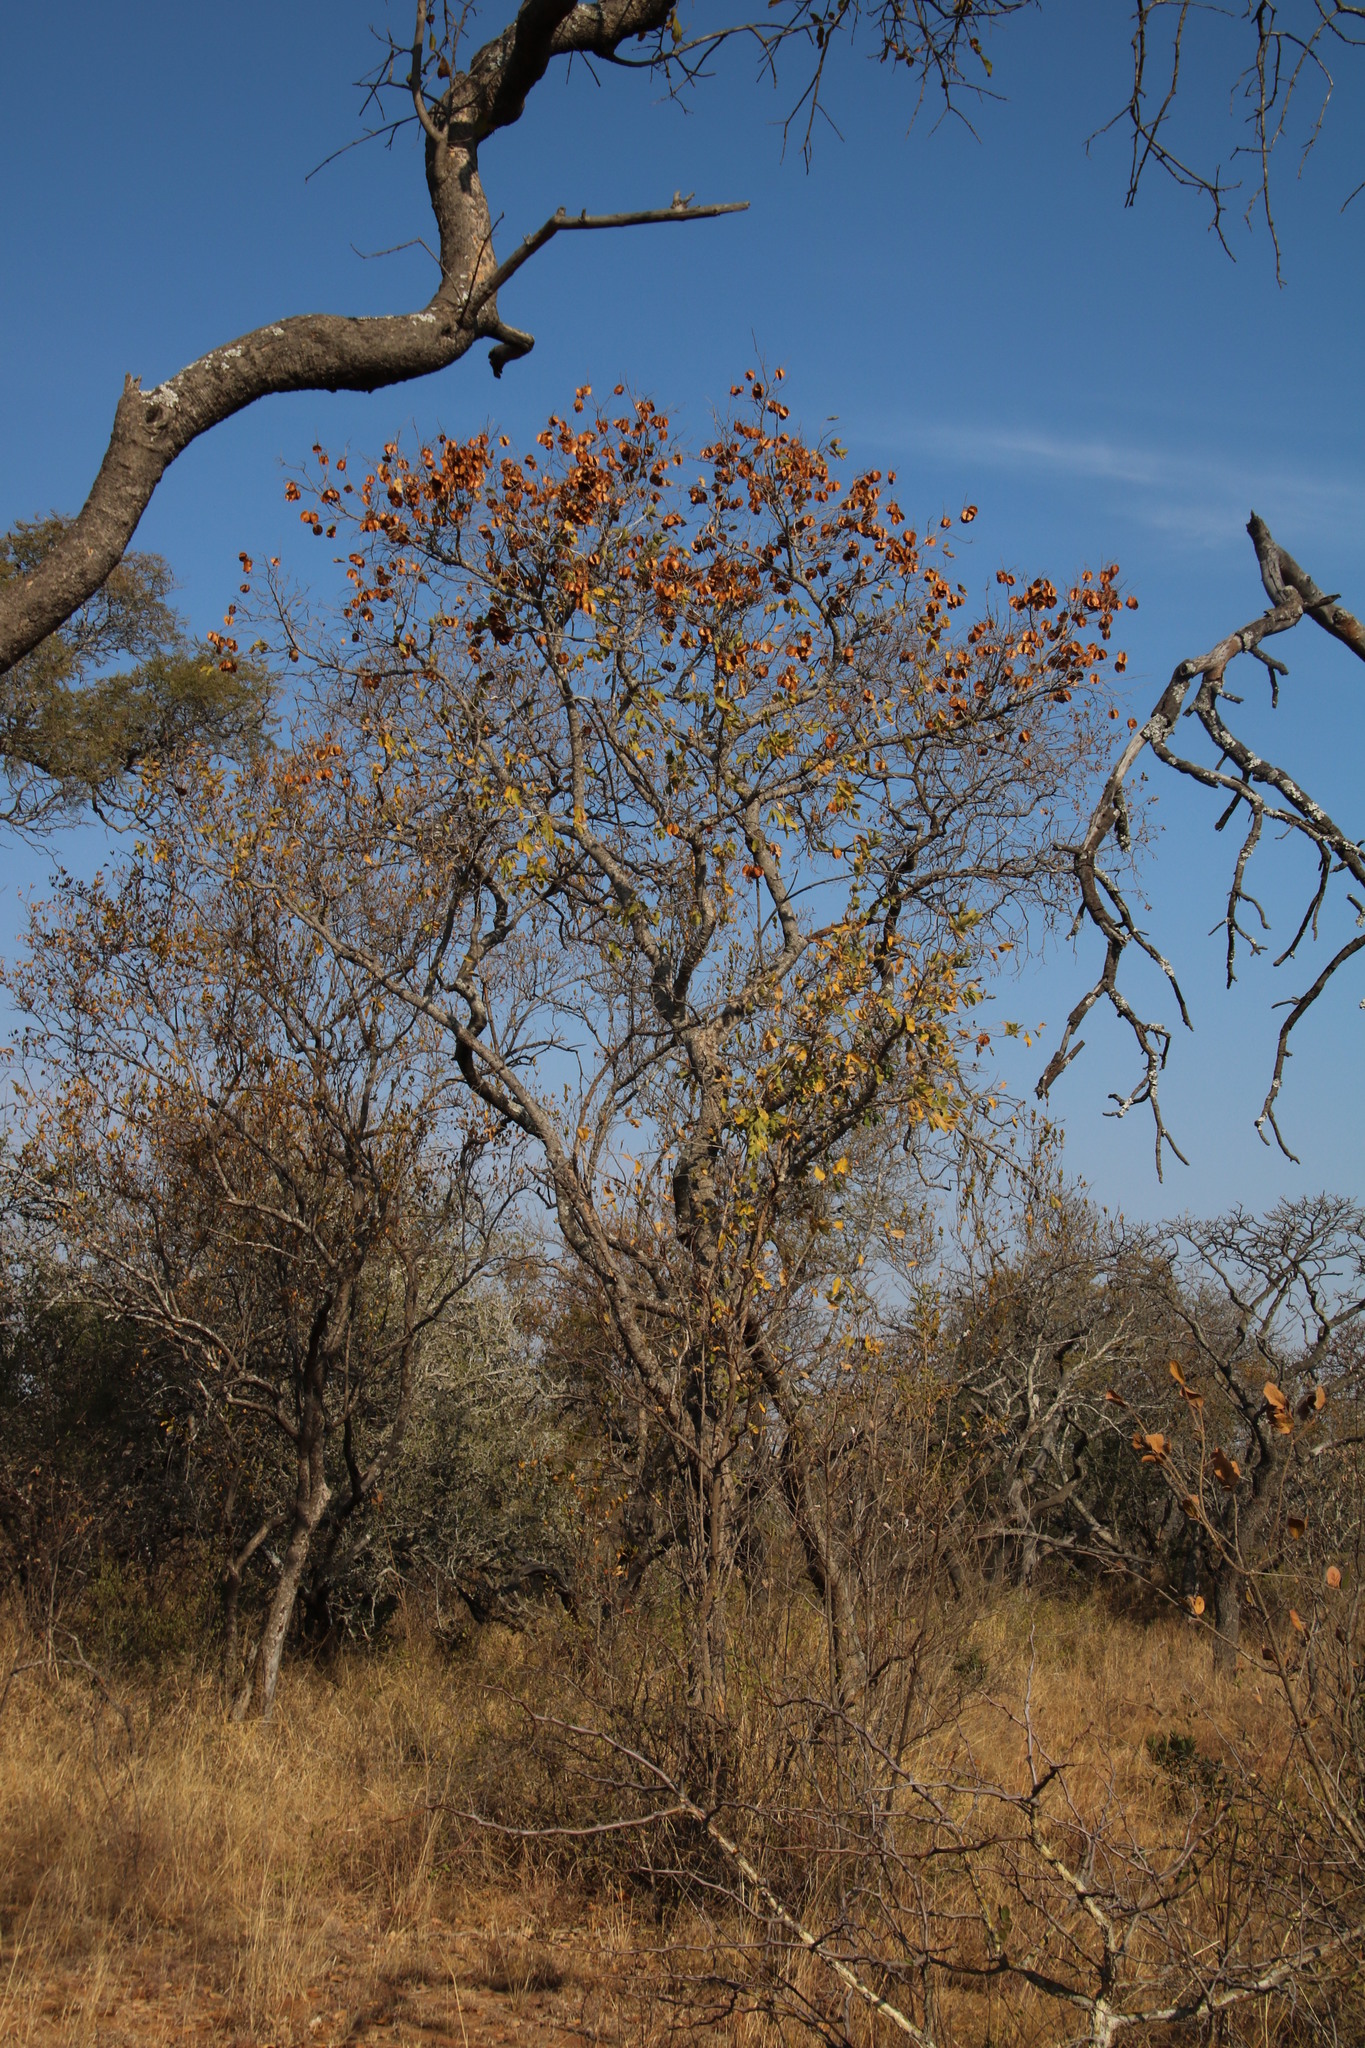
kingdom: Plantae
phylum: Tracheophyta
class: Magnoliopsida
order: Myrtales
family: Combretaceae
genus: Combretum
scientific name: Combretum zeyheri
